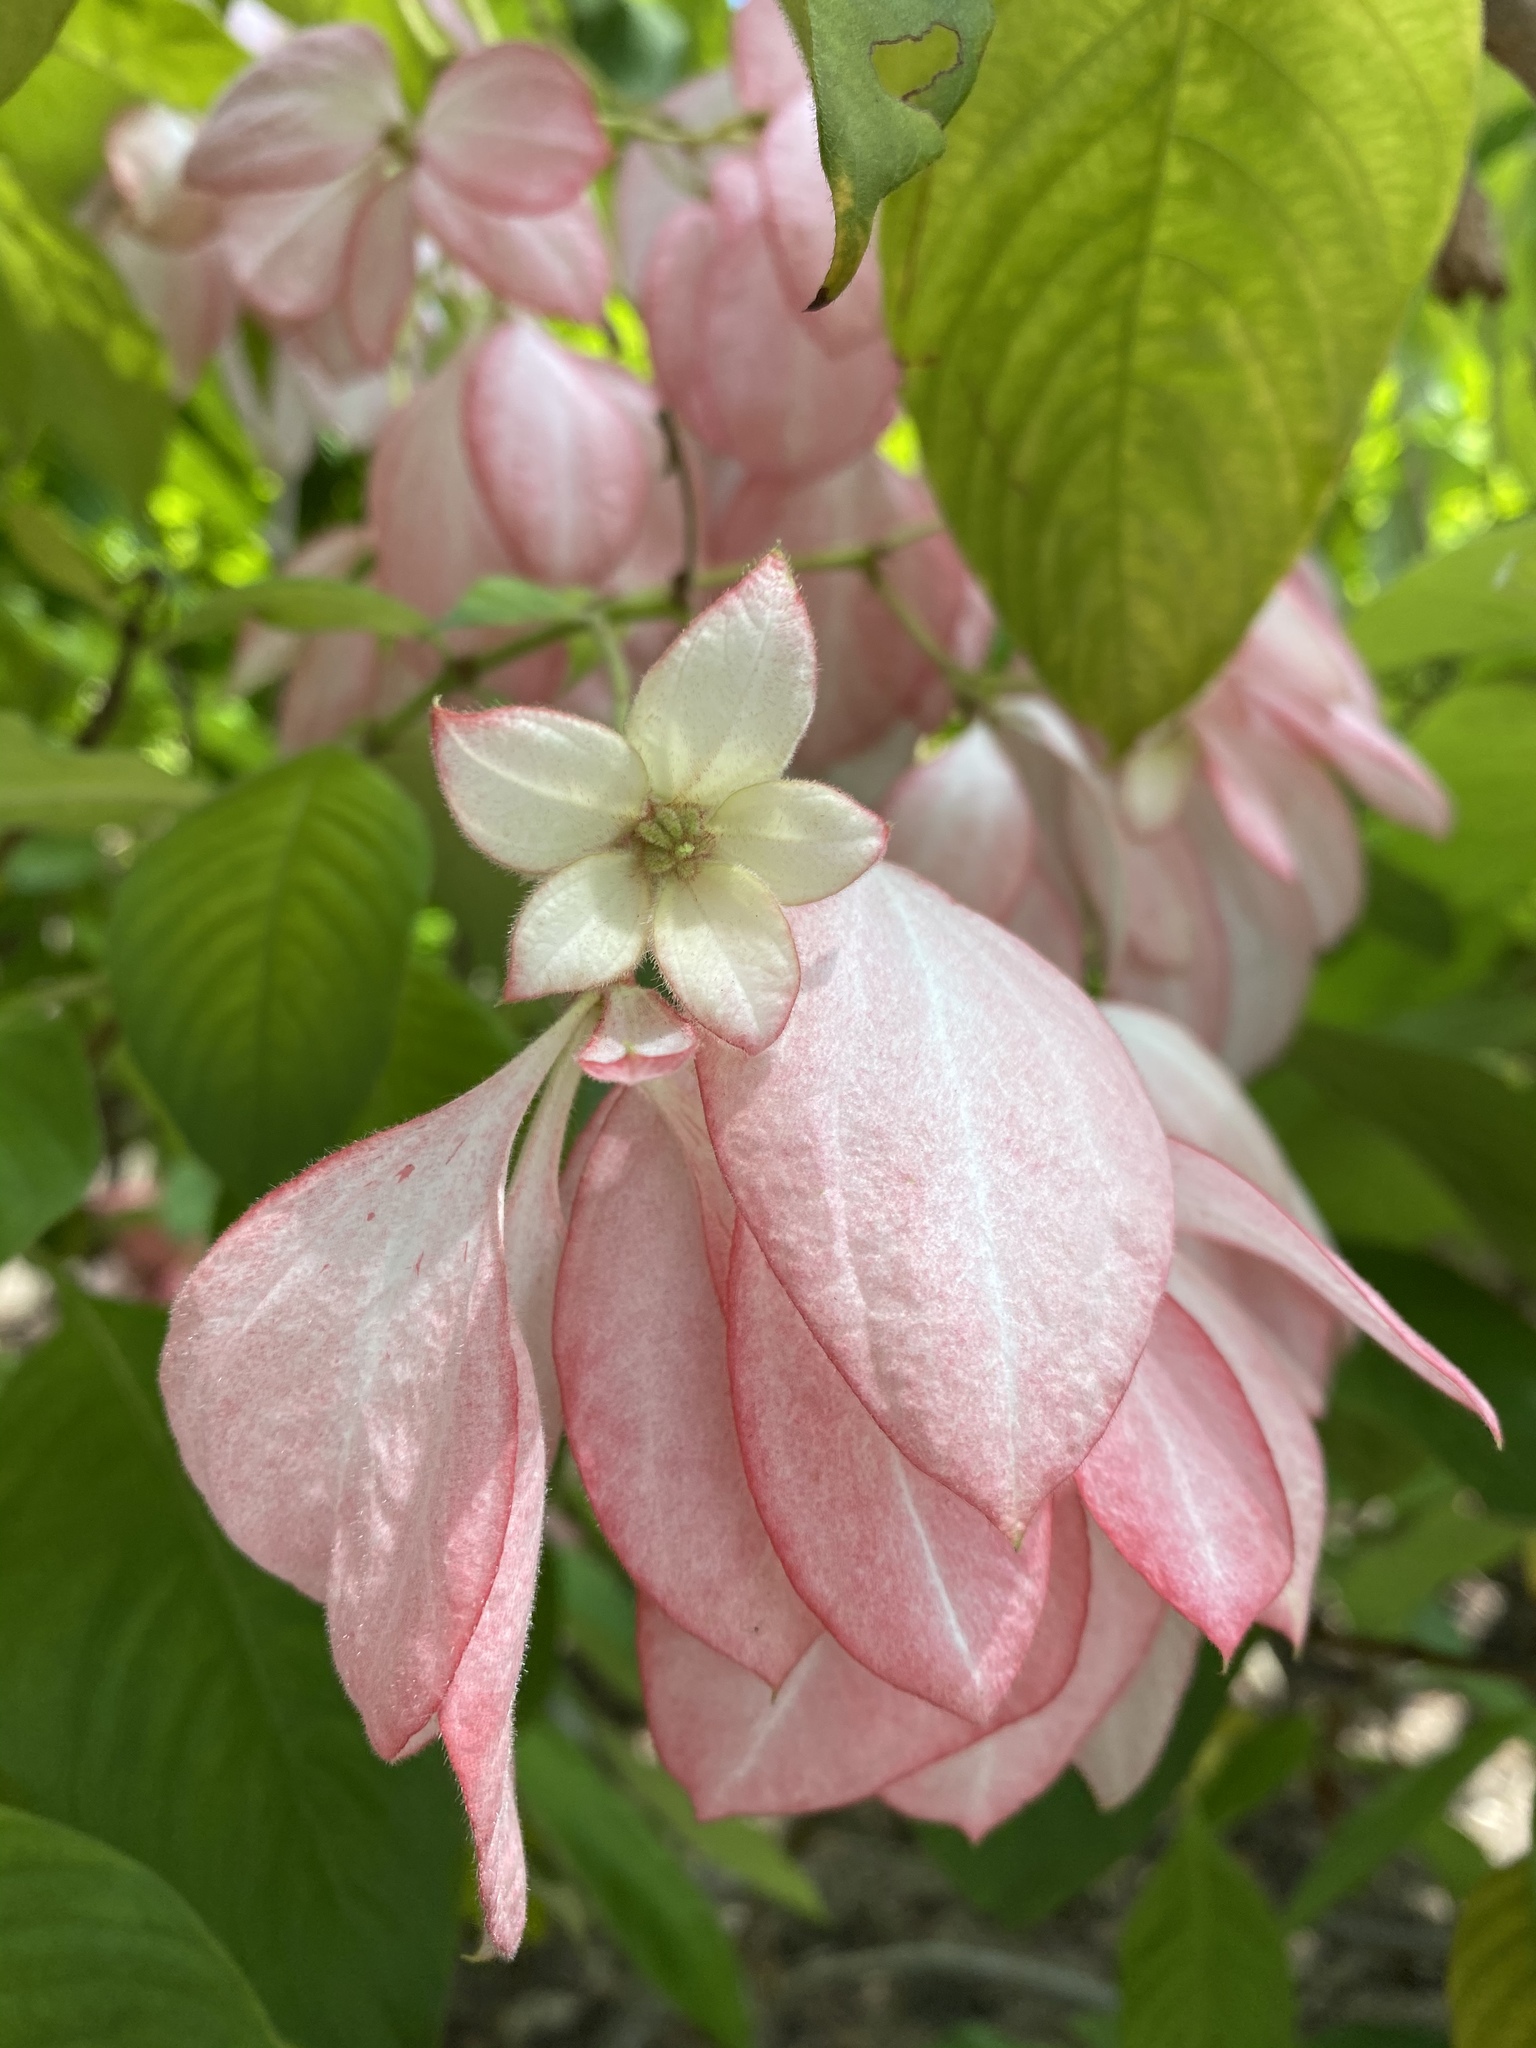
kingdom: Plantae
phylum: Tracheophyta
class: Magnoliopsida
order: Gentianales
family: Rubiaceae
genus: Mussaenda
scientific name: Mussaenda erythrophylla
